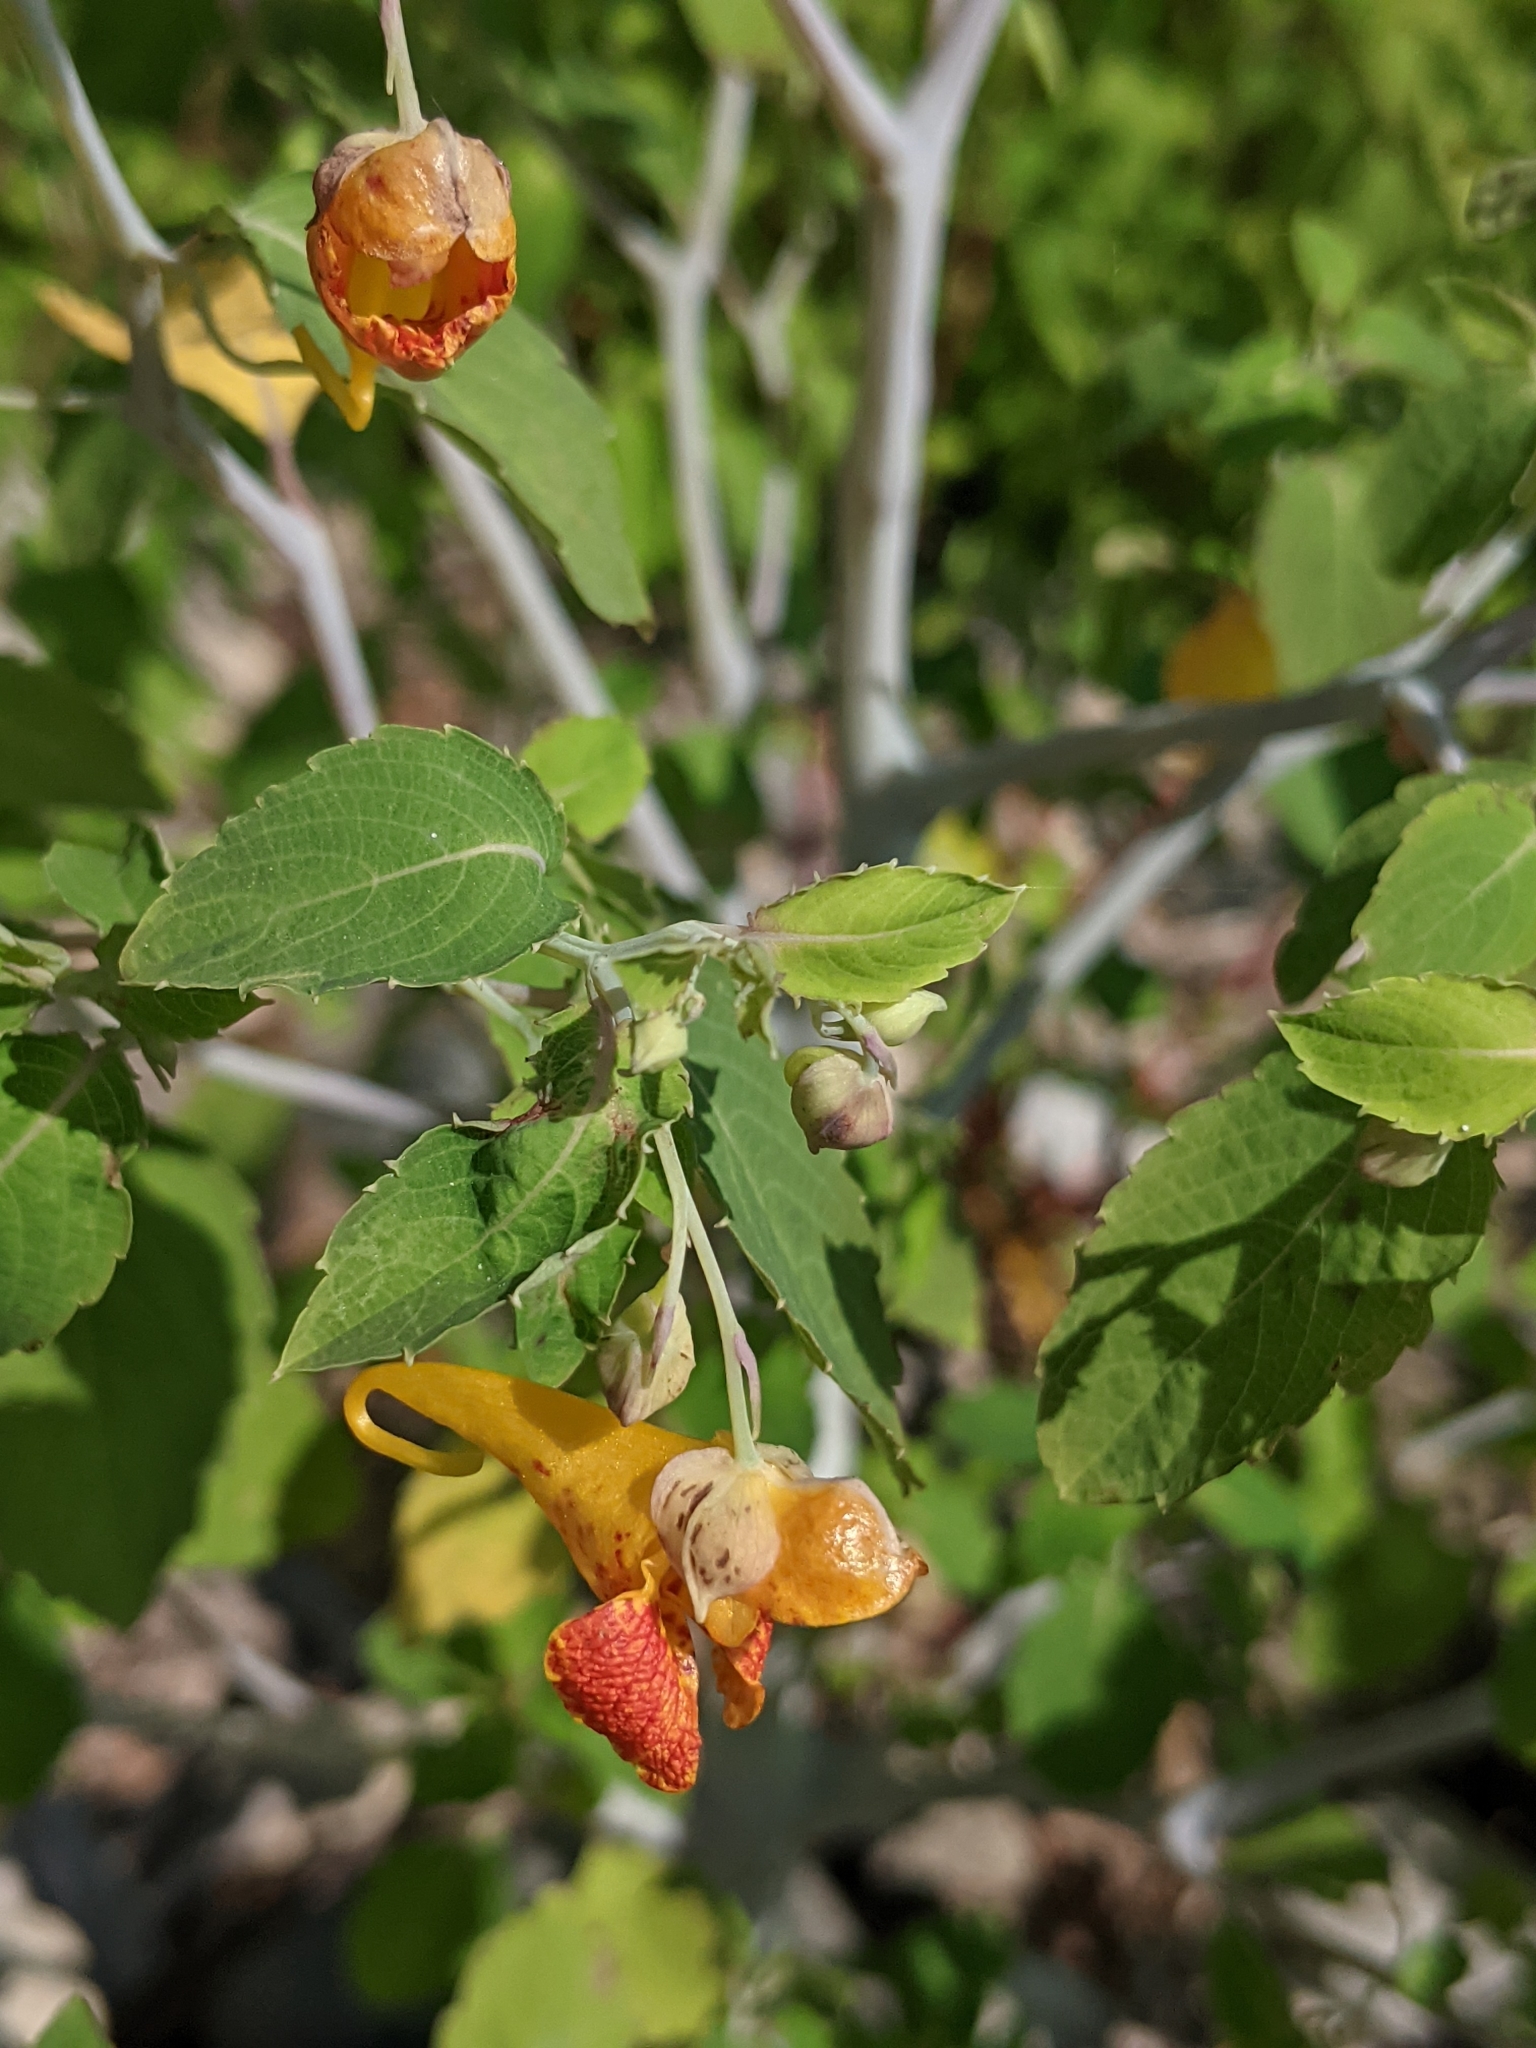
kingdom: Plantae
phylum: Tracheophyta
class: Magnoliopsida
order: Ericales
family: Balsaminaceae
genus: Impatiens
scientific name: Impatiens capensis
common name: Orange balsam
